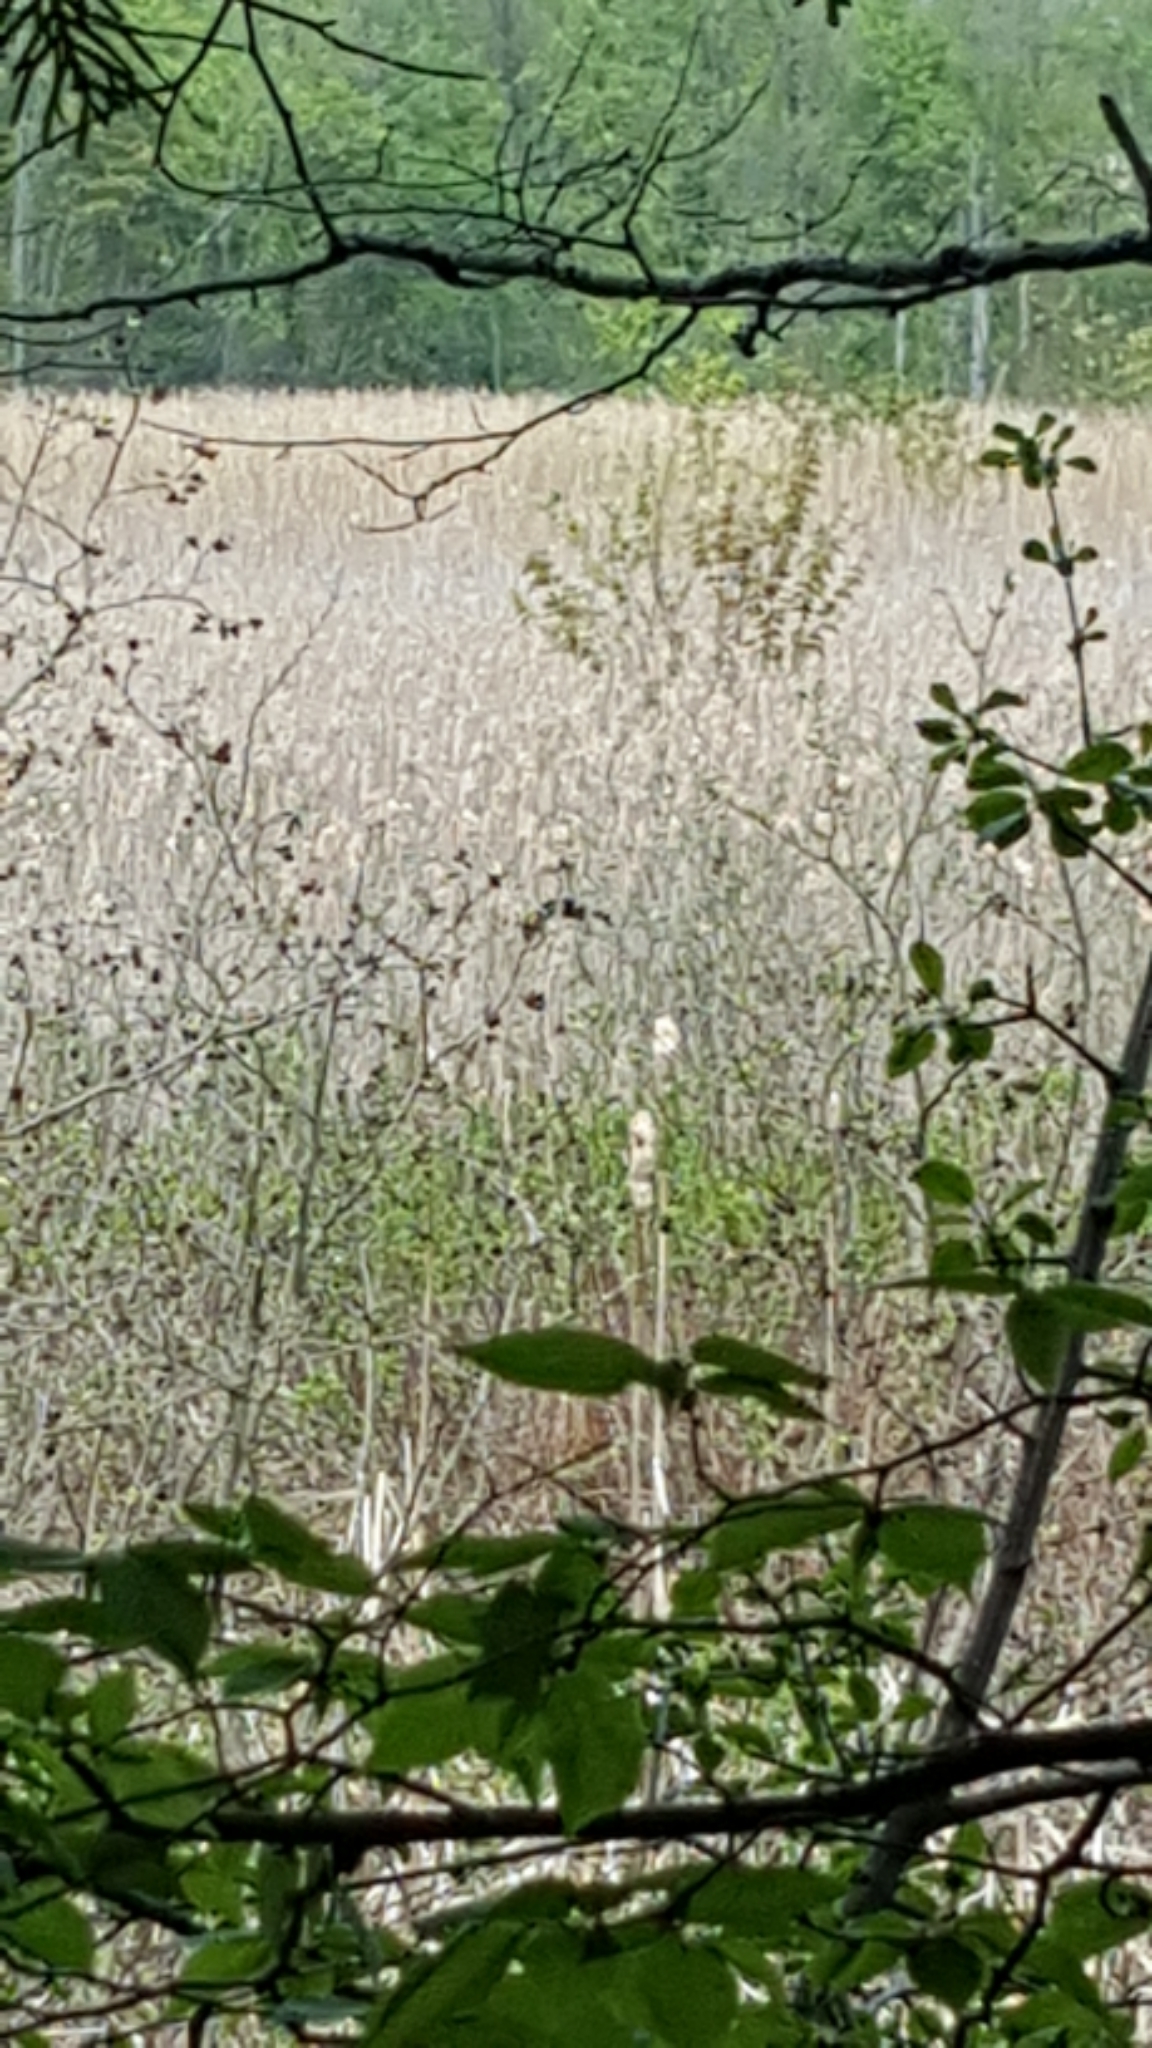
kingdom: Plantae
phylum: Tracheophyta
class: Liliopsida
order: Poales
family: Poaceae
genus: Phragmites
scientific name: Phragmites australis
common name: Common reed
